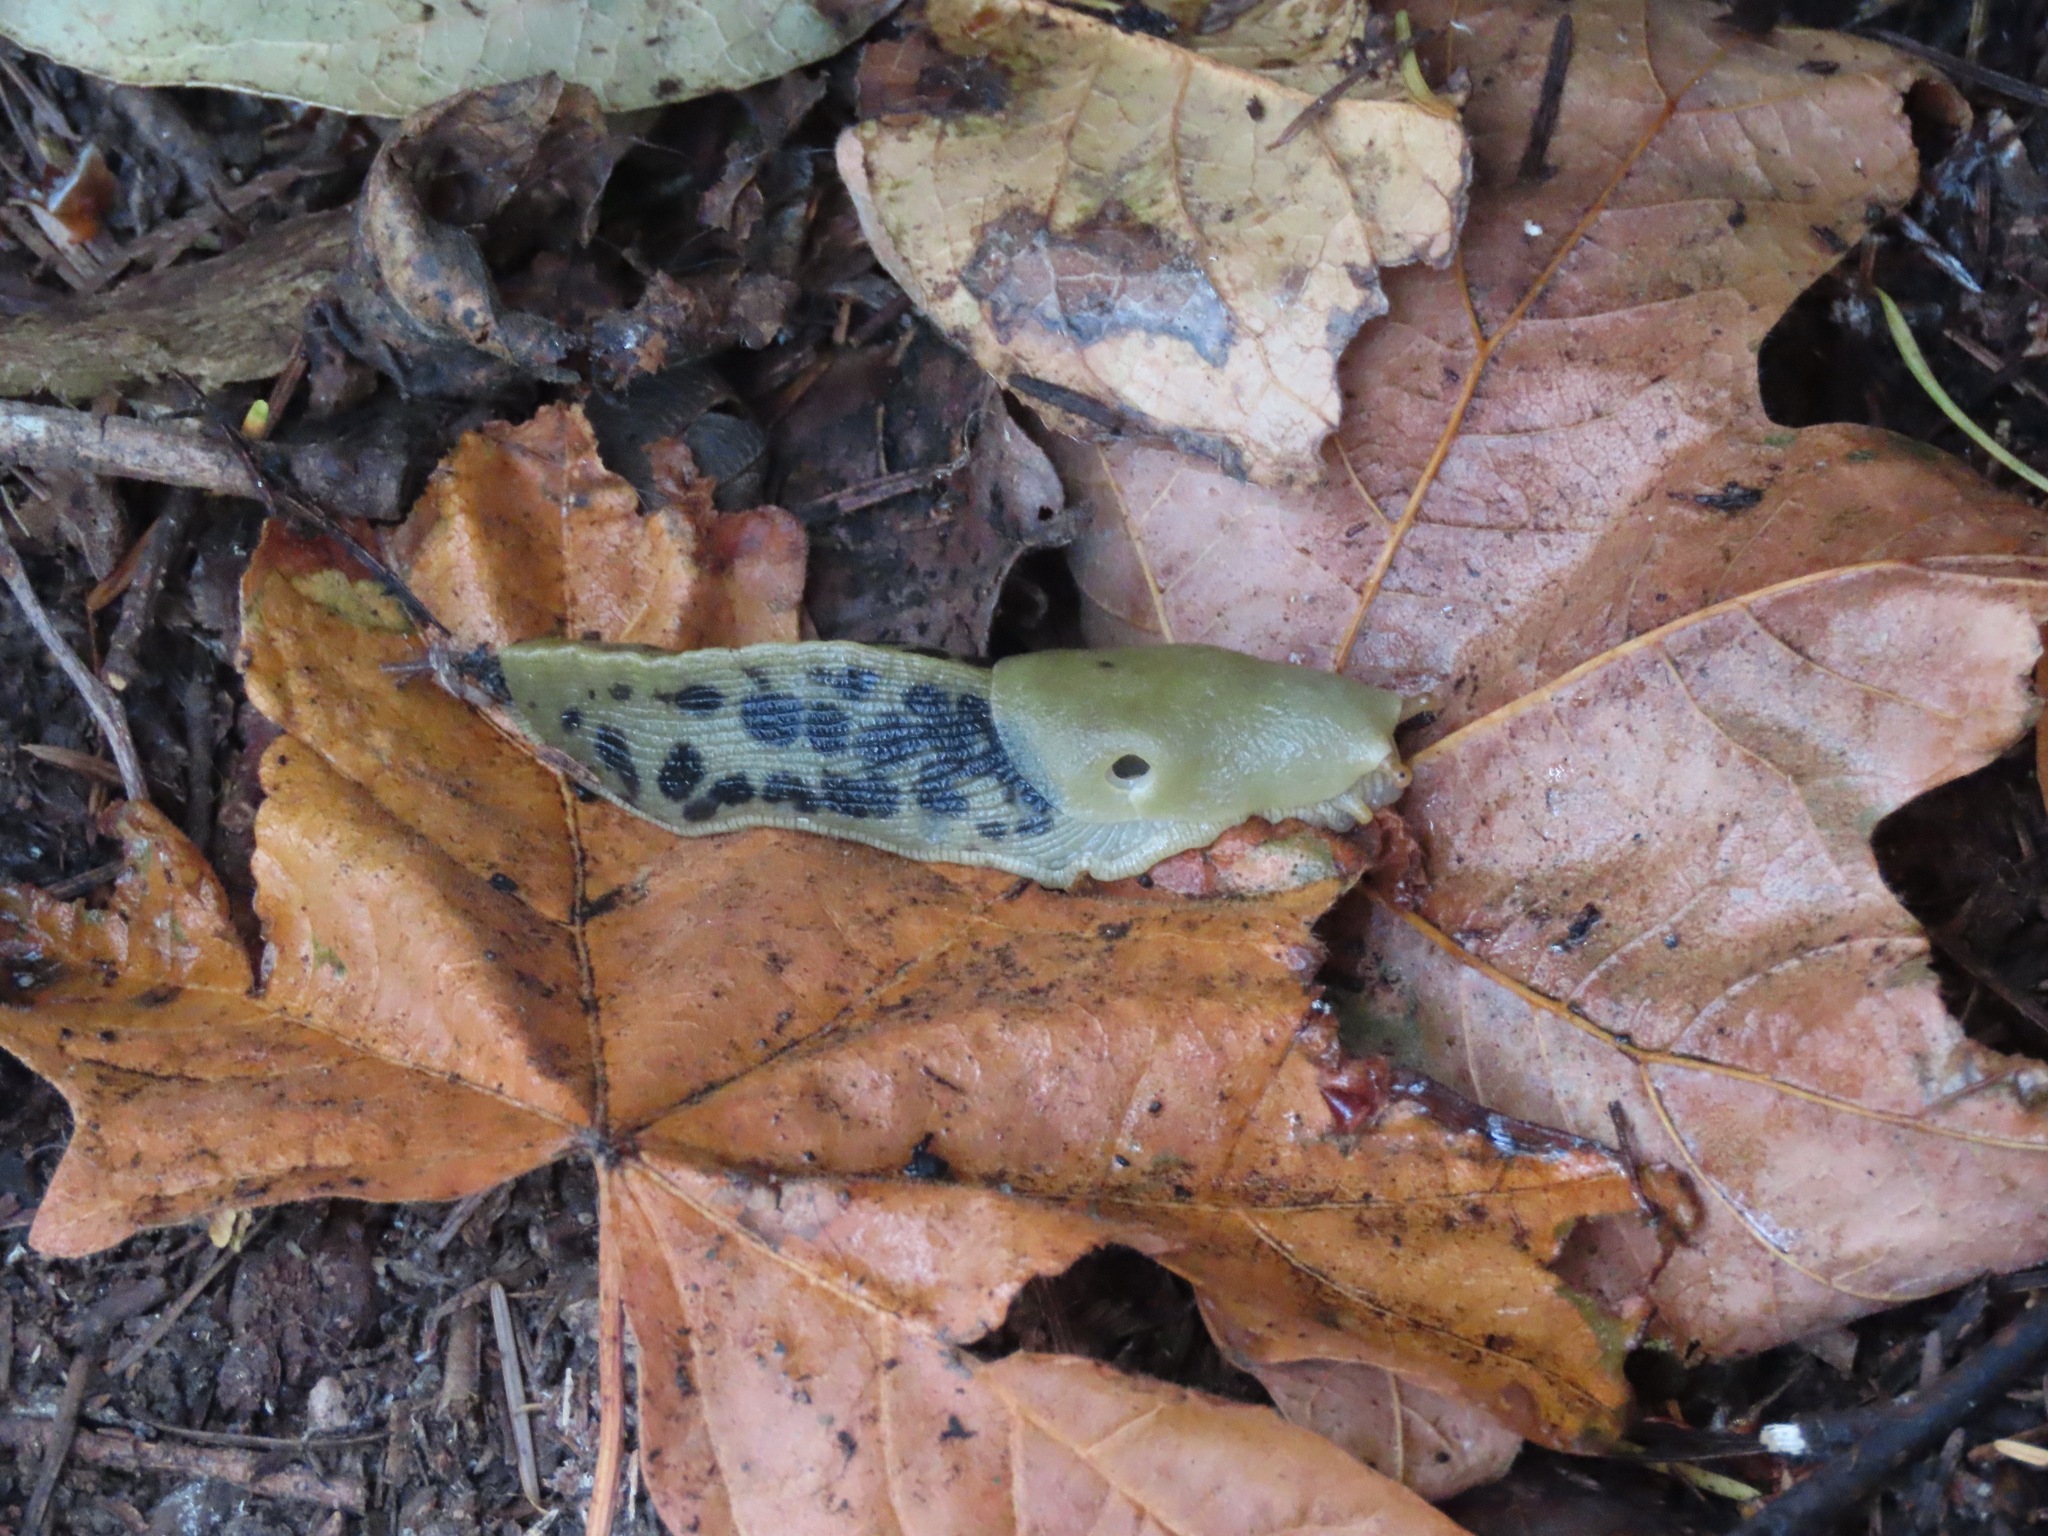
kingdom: Animalia
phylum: Mollusca
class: Gastropoda
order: Stylommatophora
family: Ariolimacidae
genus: Ariolimax
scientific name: Ariolimax columbianus
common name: Pacific banana slug
